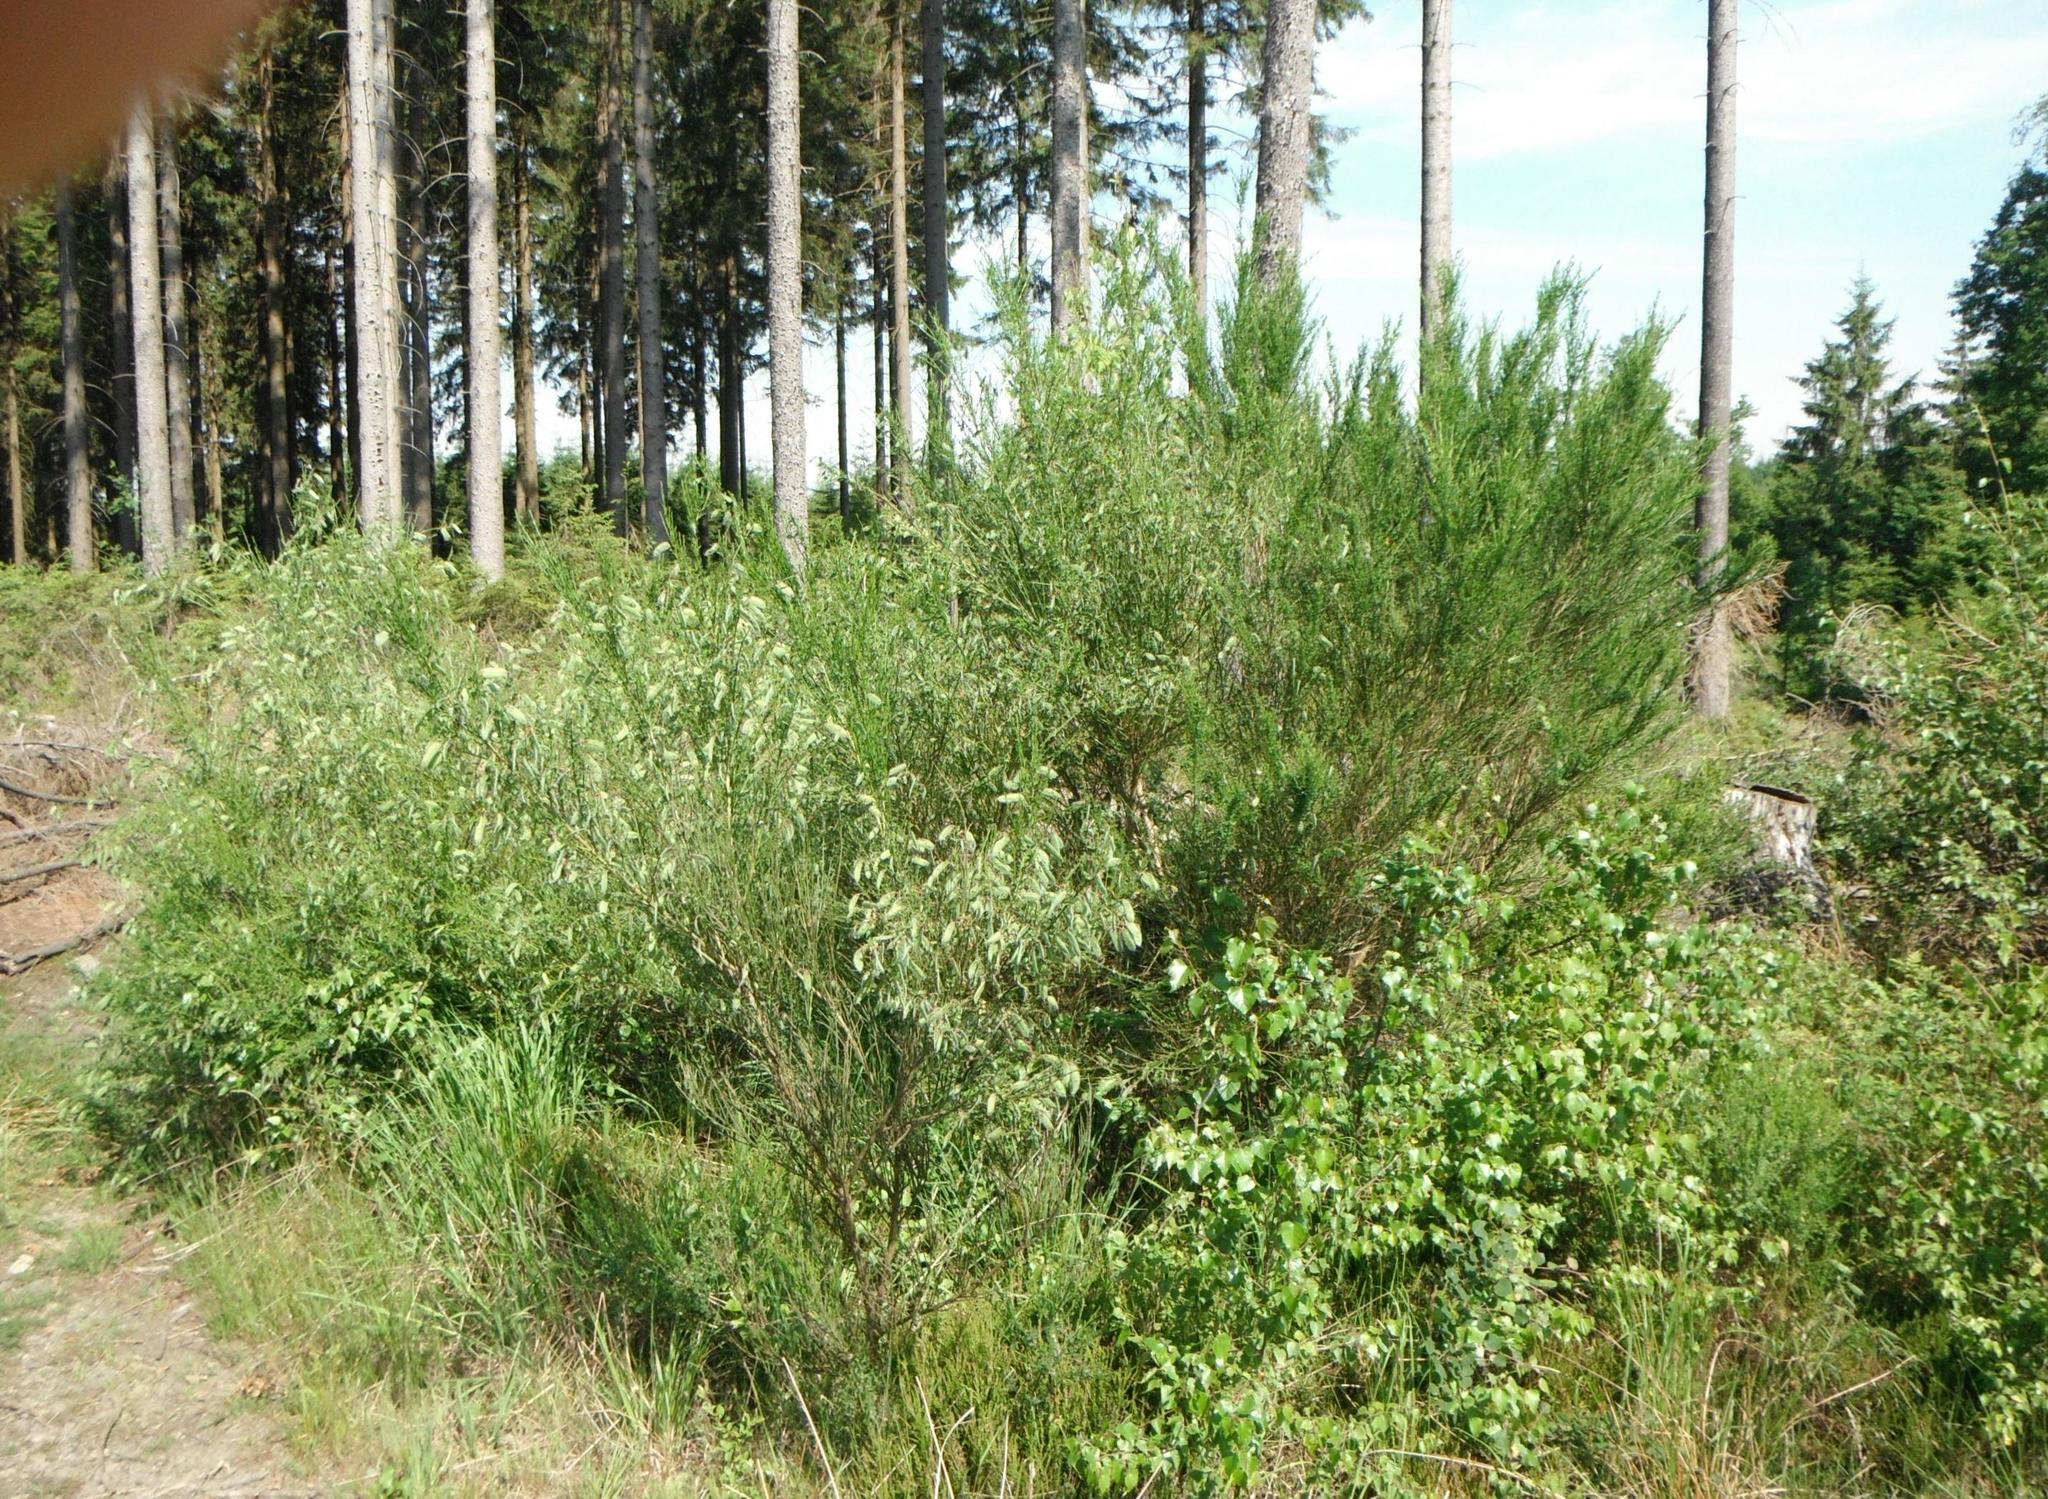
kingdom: Plantae
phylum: Tracheophyta
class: Magnoliopsida
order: Fabales
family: Fabaceae
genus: Cytisus
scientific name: Cytisus scoparius
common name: Scotch broom
